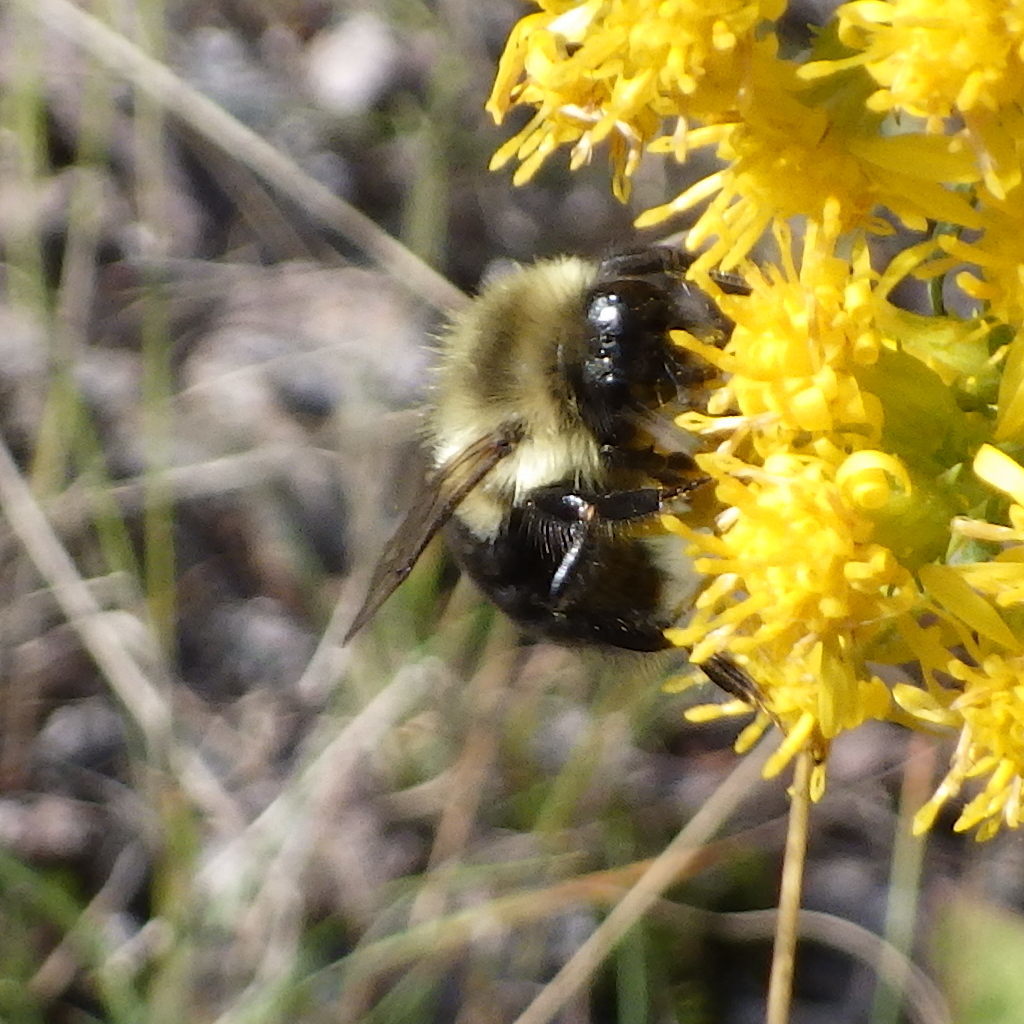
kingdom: Animalia
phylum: Arthropoda
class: Insecta
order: Hymenoptera
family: Apidae
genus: Bombus
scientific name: Bombus impatiens
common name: Common eastern bumble bee
